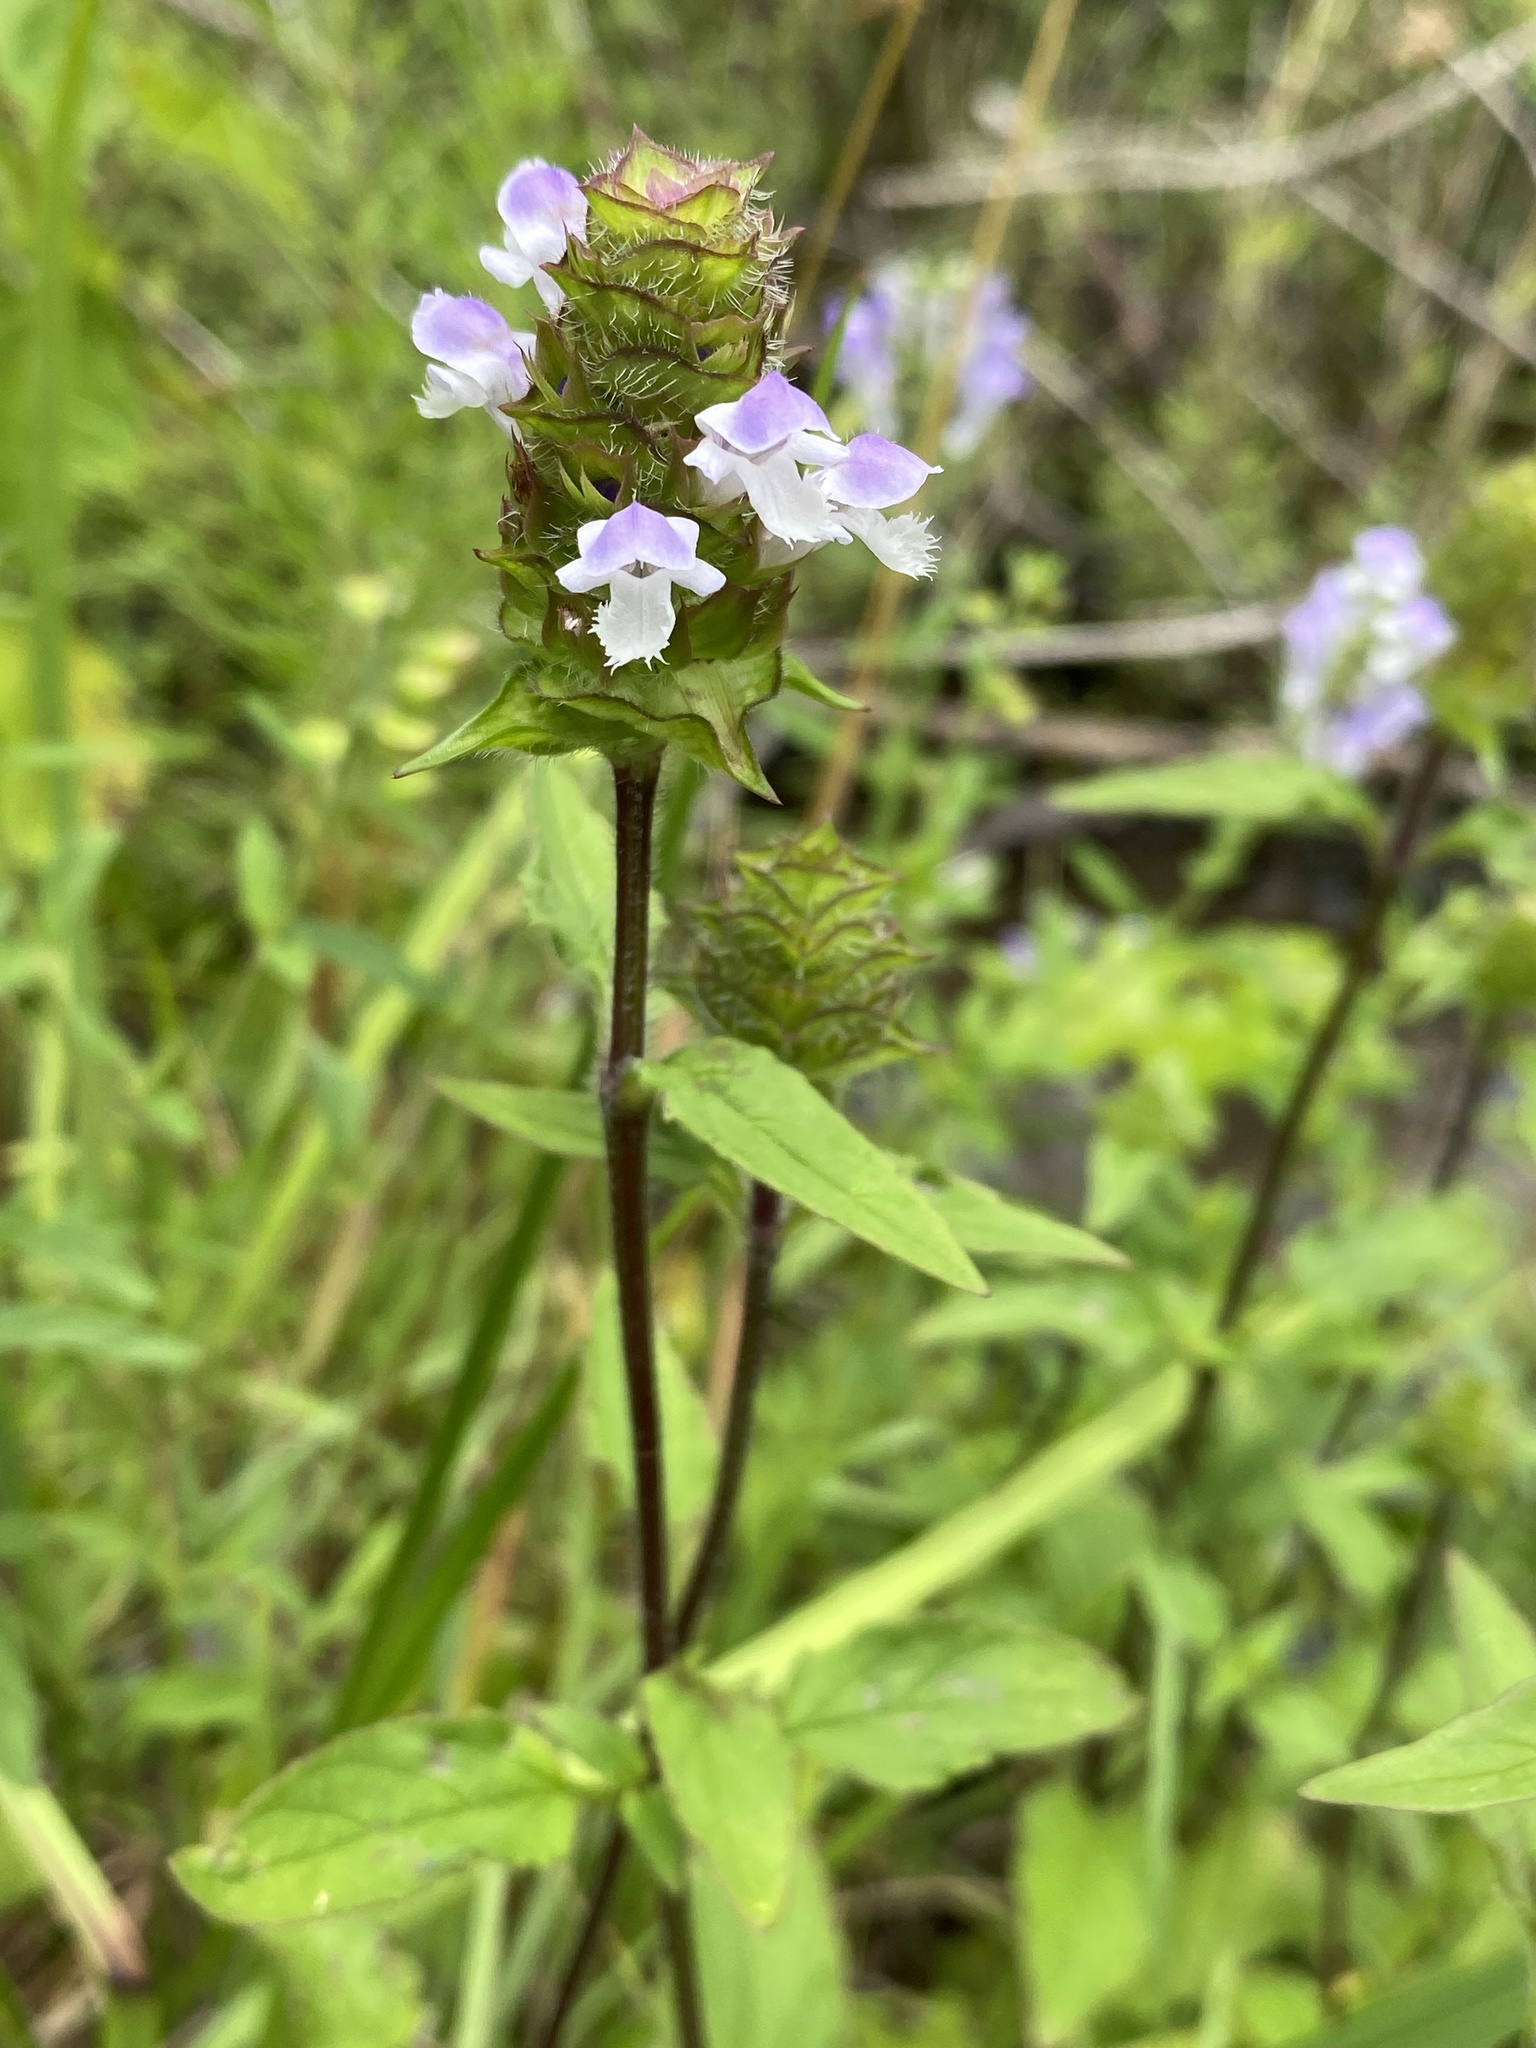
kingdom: Plantae
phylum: Tracheophyta
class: Magnoliopsida
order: Lamiales
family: Lamiaceae
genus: Prunella
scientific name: Prunella vulgaris
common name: Heal-all
